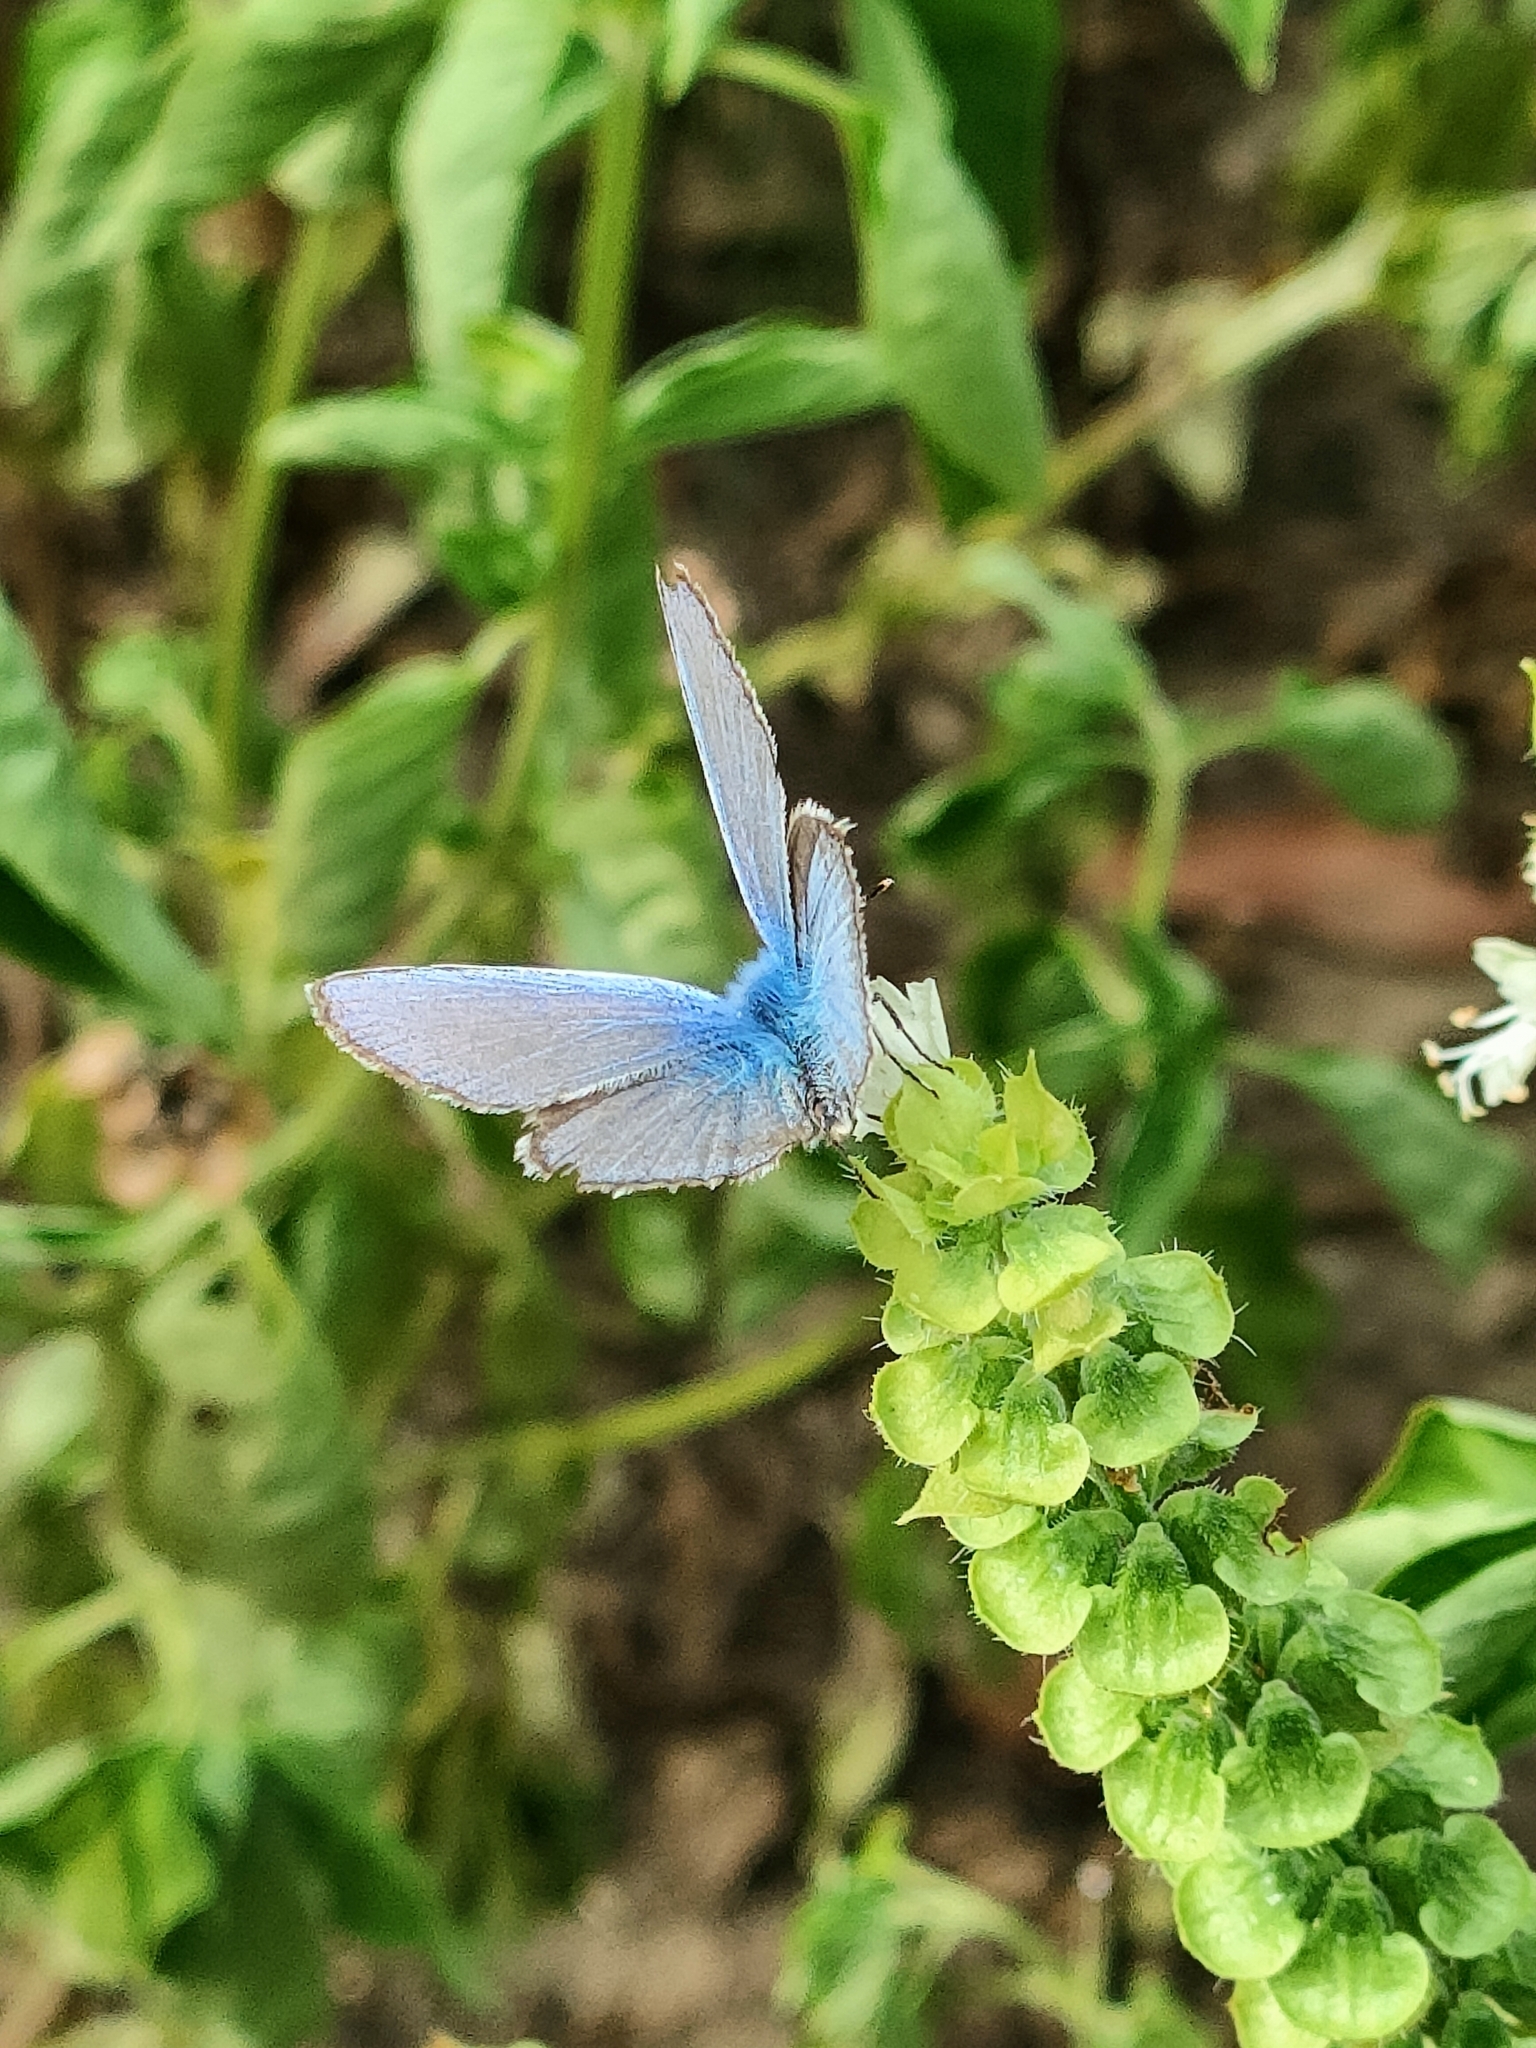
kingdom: Animalia
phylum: Arthropoda
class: Insecta
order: Lepidoptera
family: Lycaenidae
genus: Polyommatus
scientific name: Polyommatus icarus
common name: Common blue
